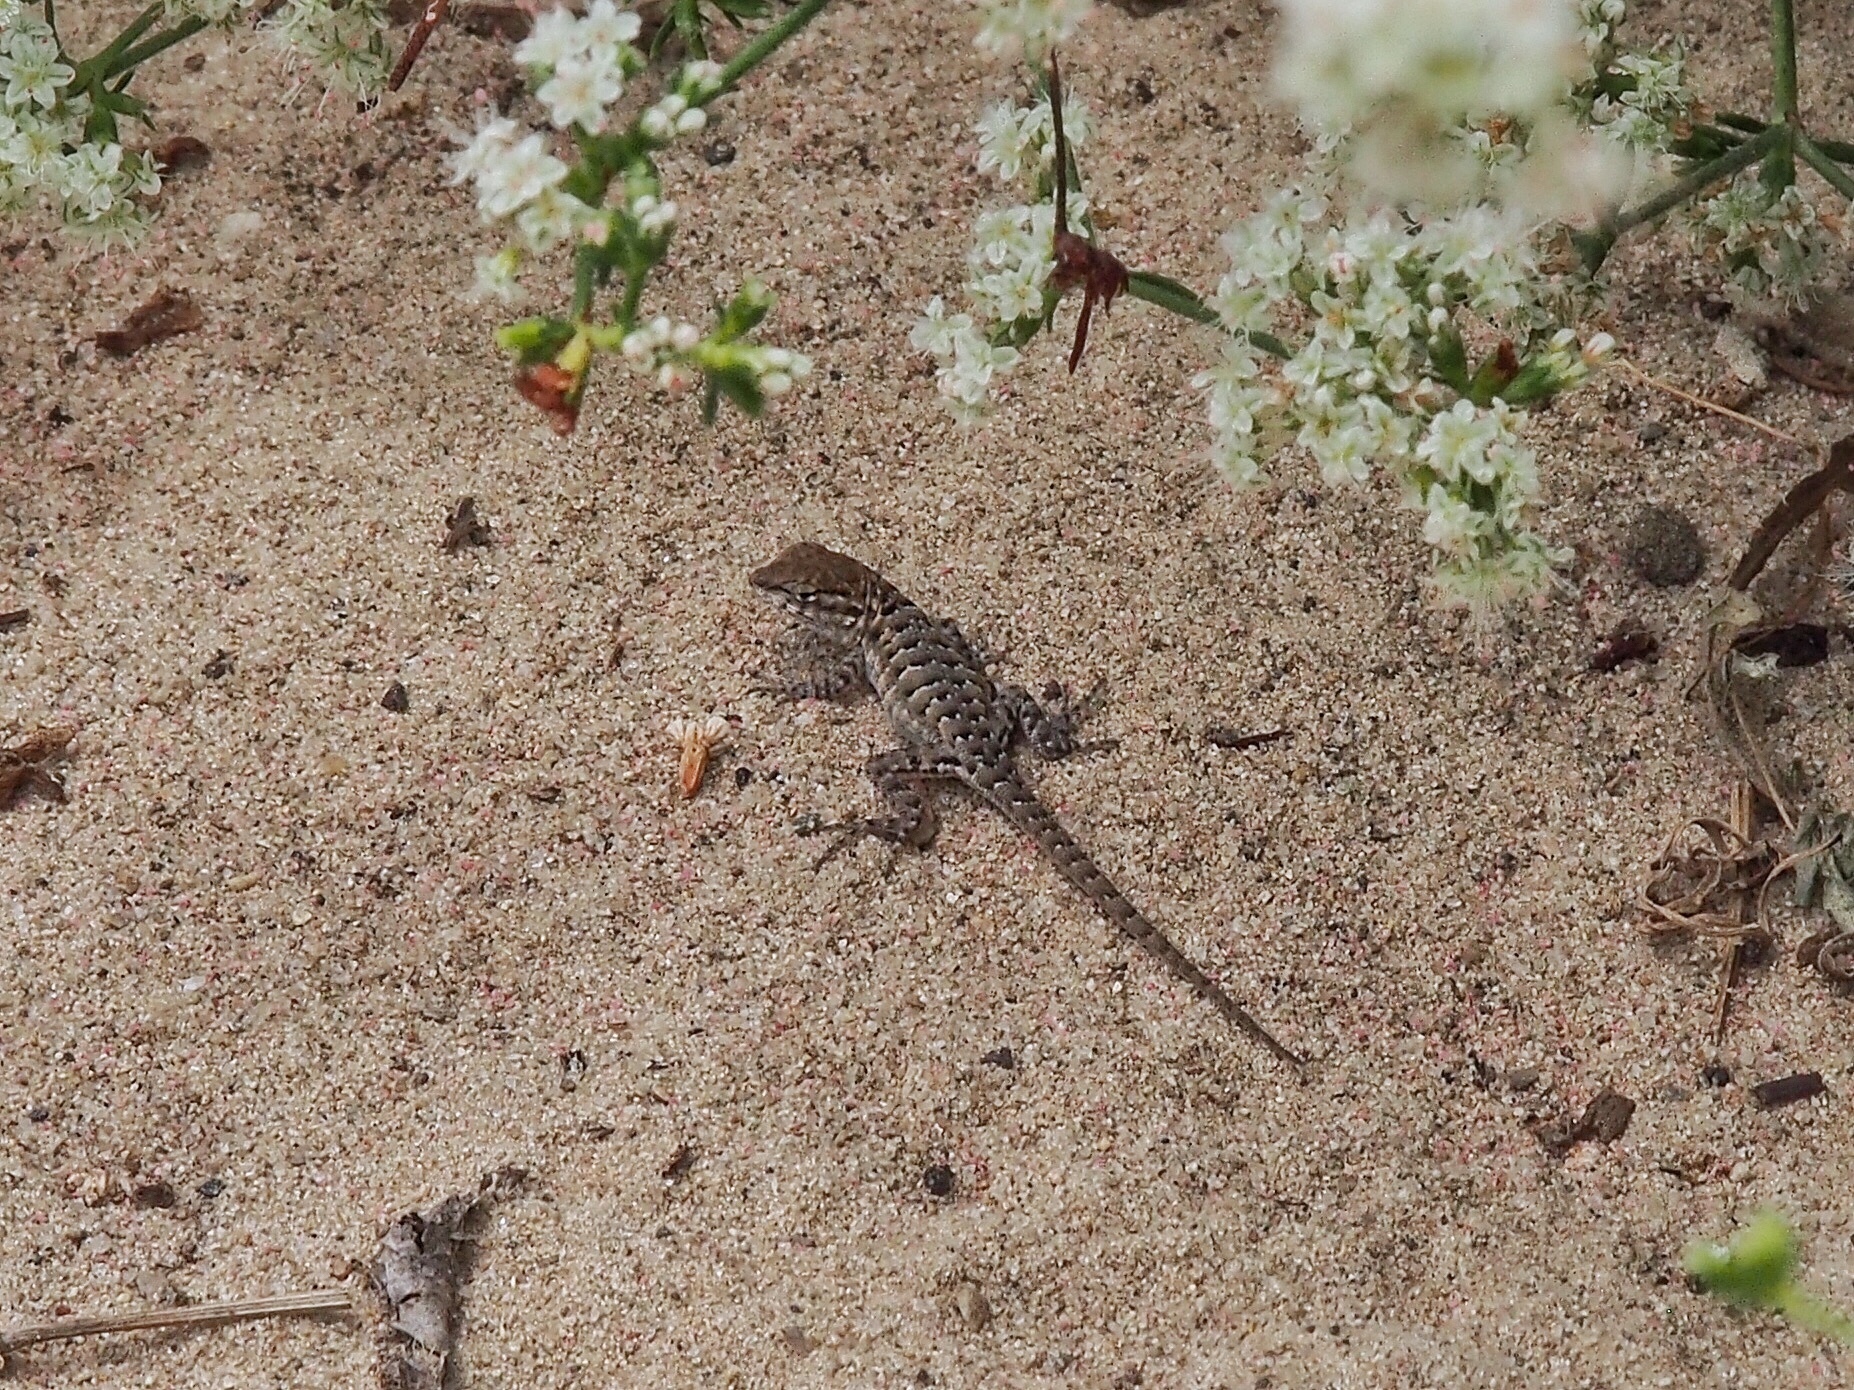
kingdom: Animalia
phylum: Chordata
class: Squamata
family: Phrynosomatidae
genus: Uta
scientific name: Uta stansburiana
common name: Side-blotched lizard
